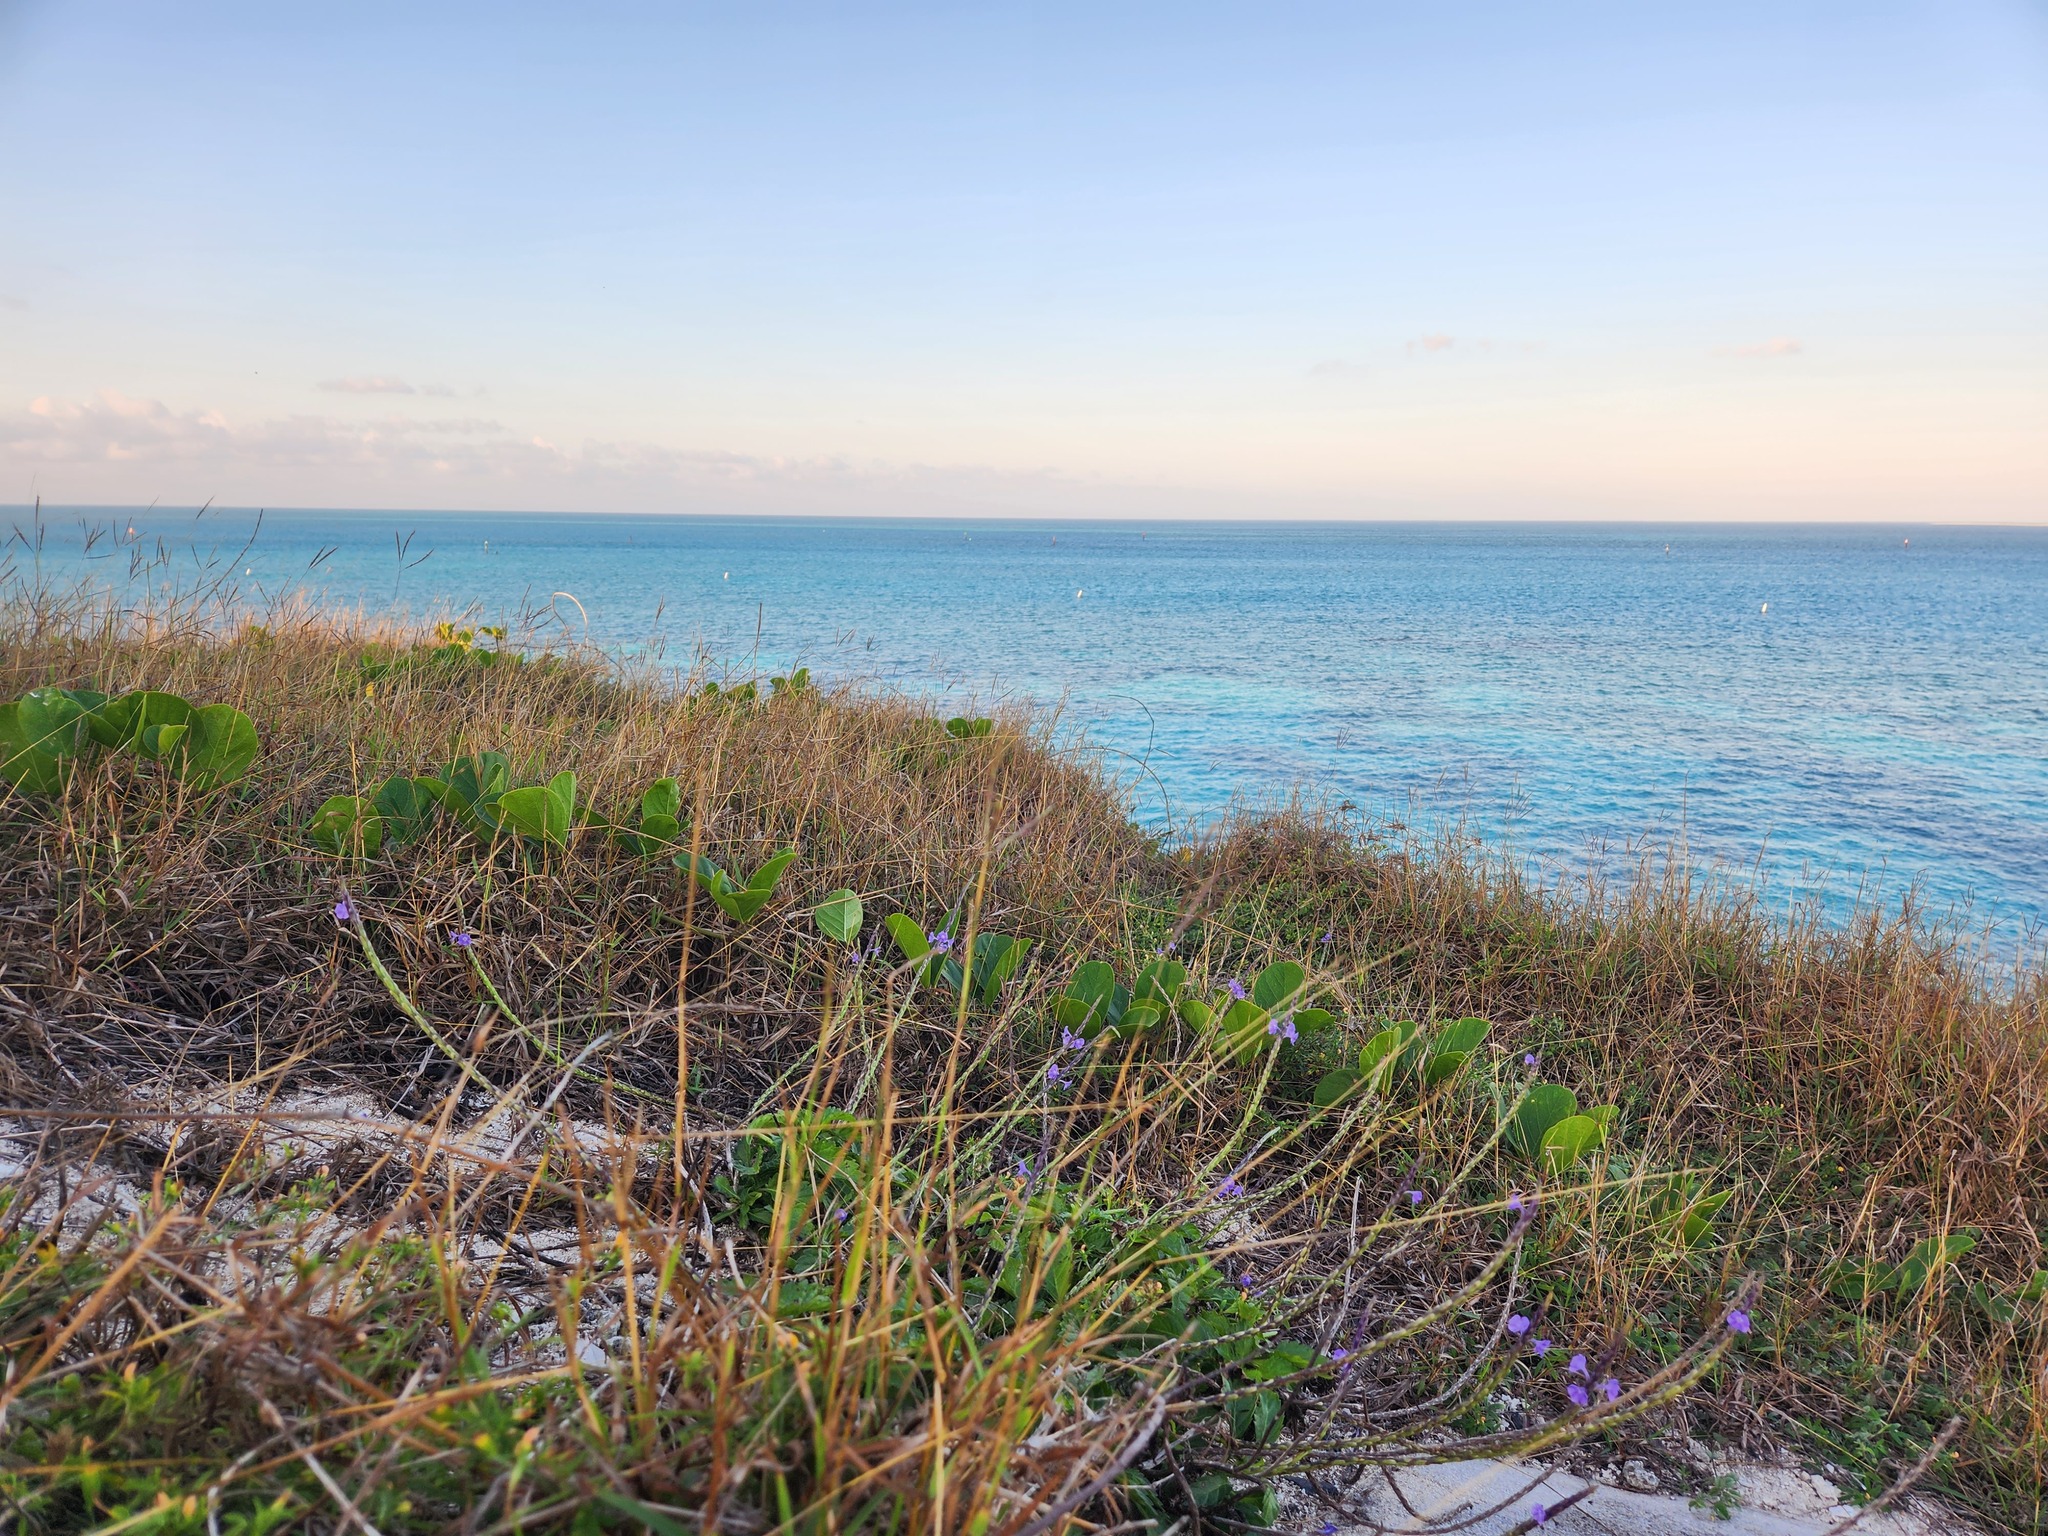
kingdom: Plantae
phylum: Tracheophyta
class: Magnoliopsida
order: Lamiales
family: Verbenaceae
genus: Stachytarpheta
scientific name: Stachytarpheta jamaicensis
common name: Light-blue snakeweed
